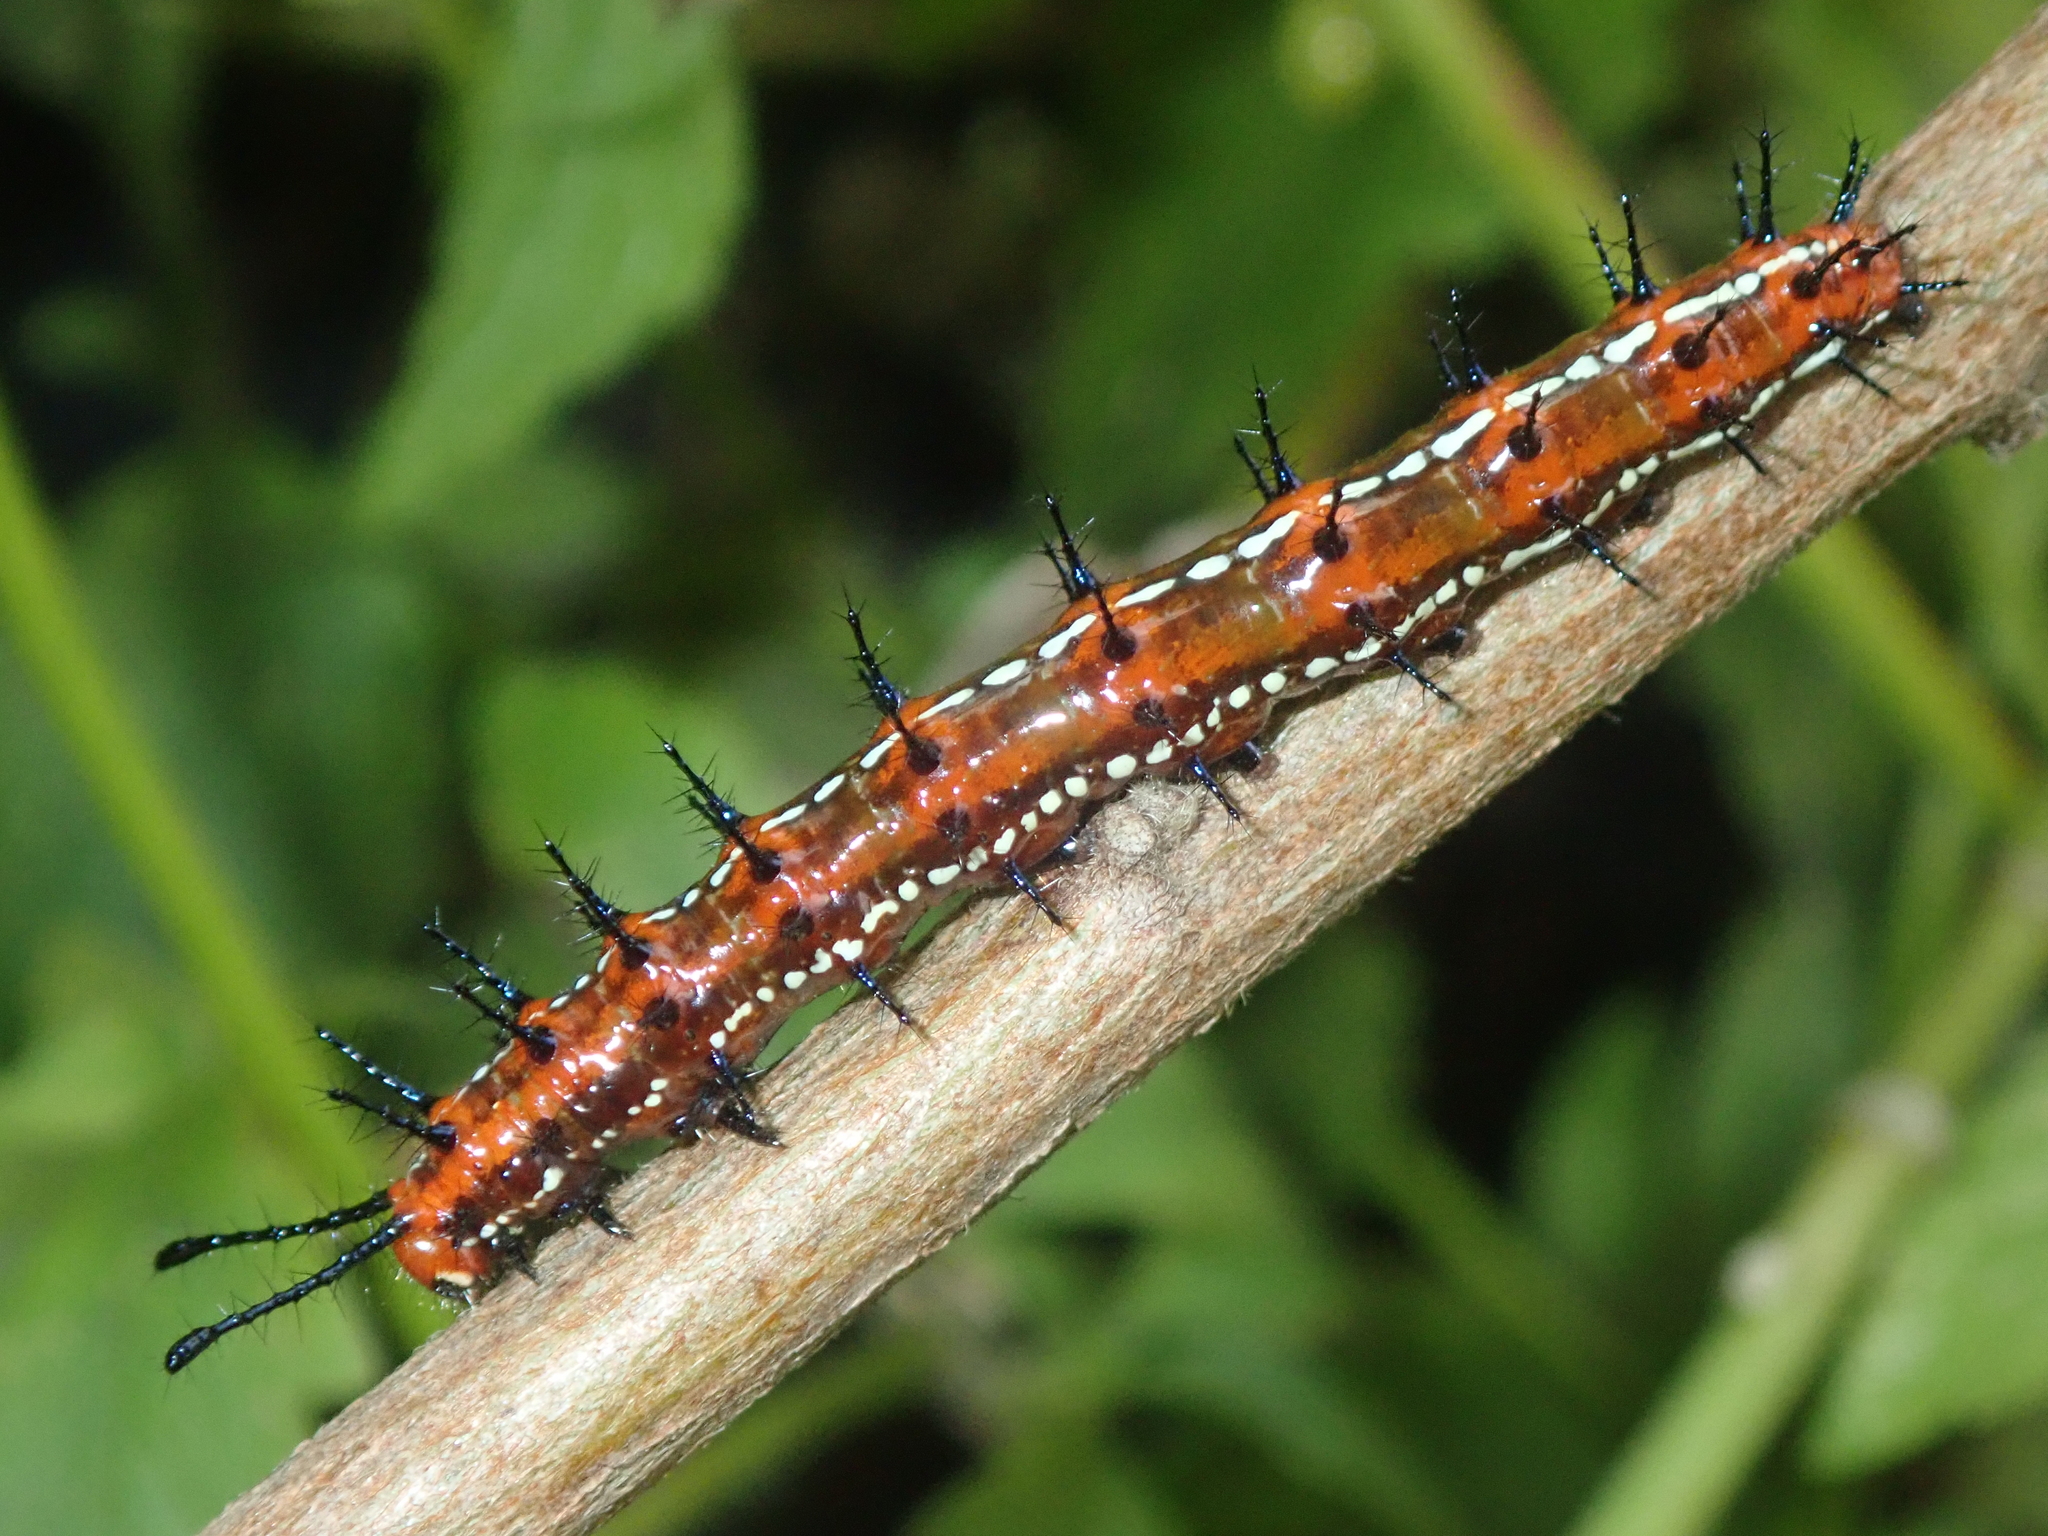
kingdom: Animalia
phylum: Arthropoda
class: Insecta
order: Lepidoptera
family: Nymphalidae
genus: Euptoieta
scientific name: Euptoieta hegesia
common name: Mexican fritillary
